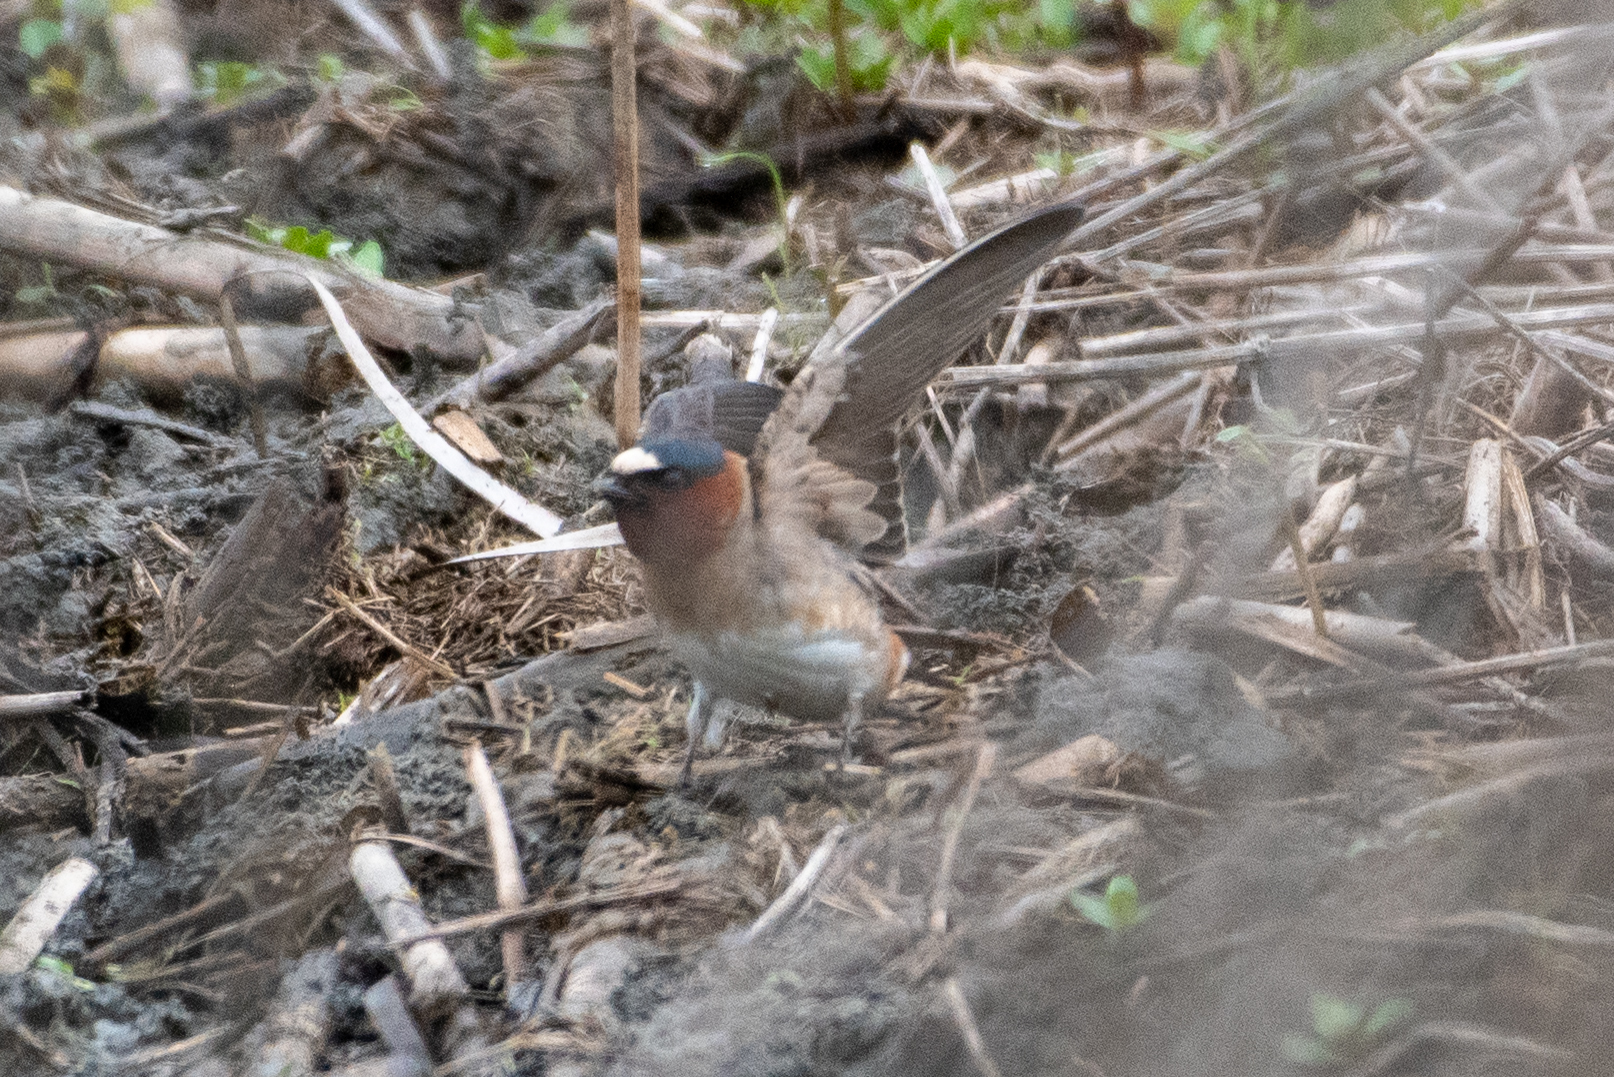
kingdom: Animalia
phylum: Chordata
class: Aves
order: Passeriformes
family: Hirundinidae
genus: Petrochelidon
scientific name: Petrochelidon pyrrhonota
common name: American cliff swallow
